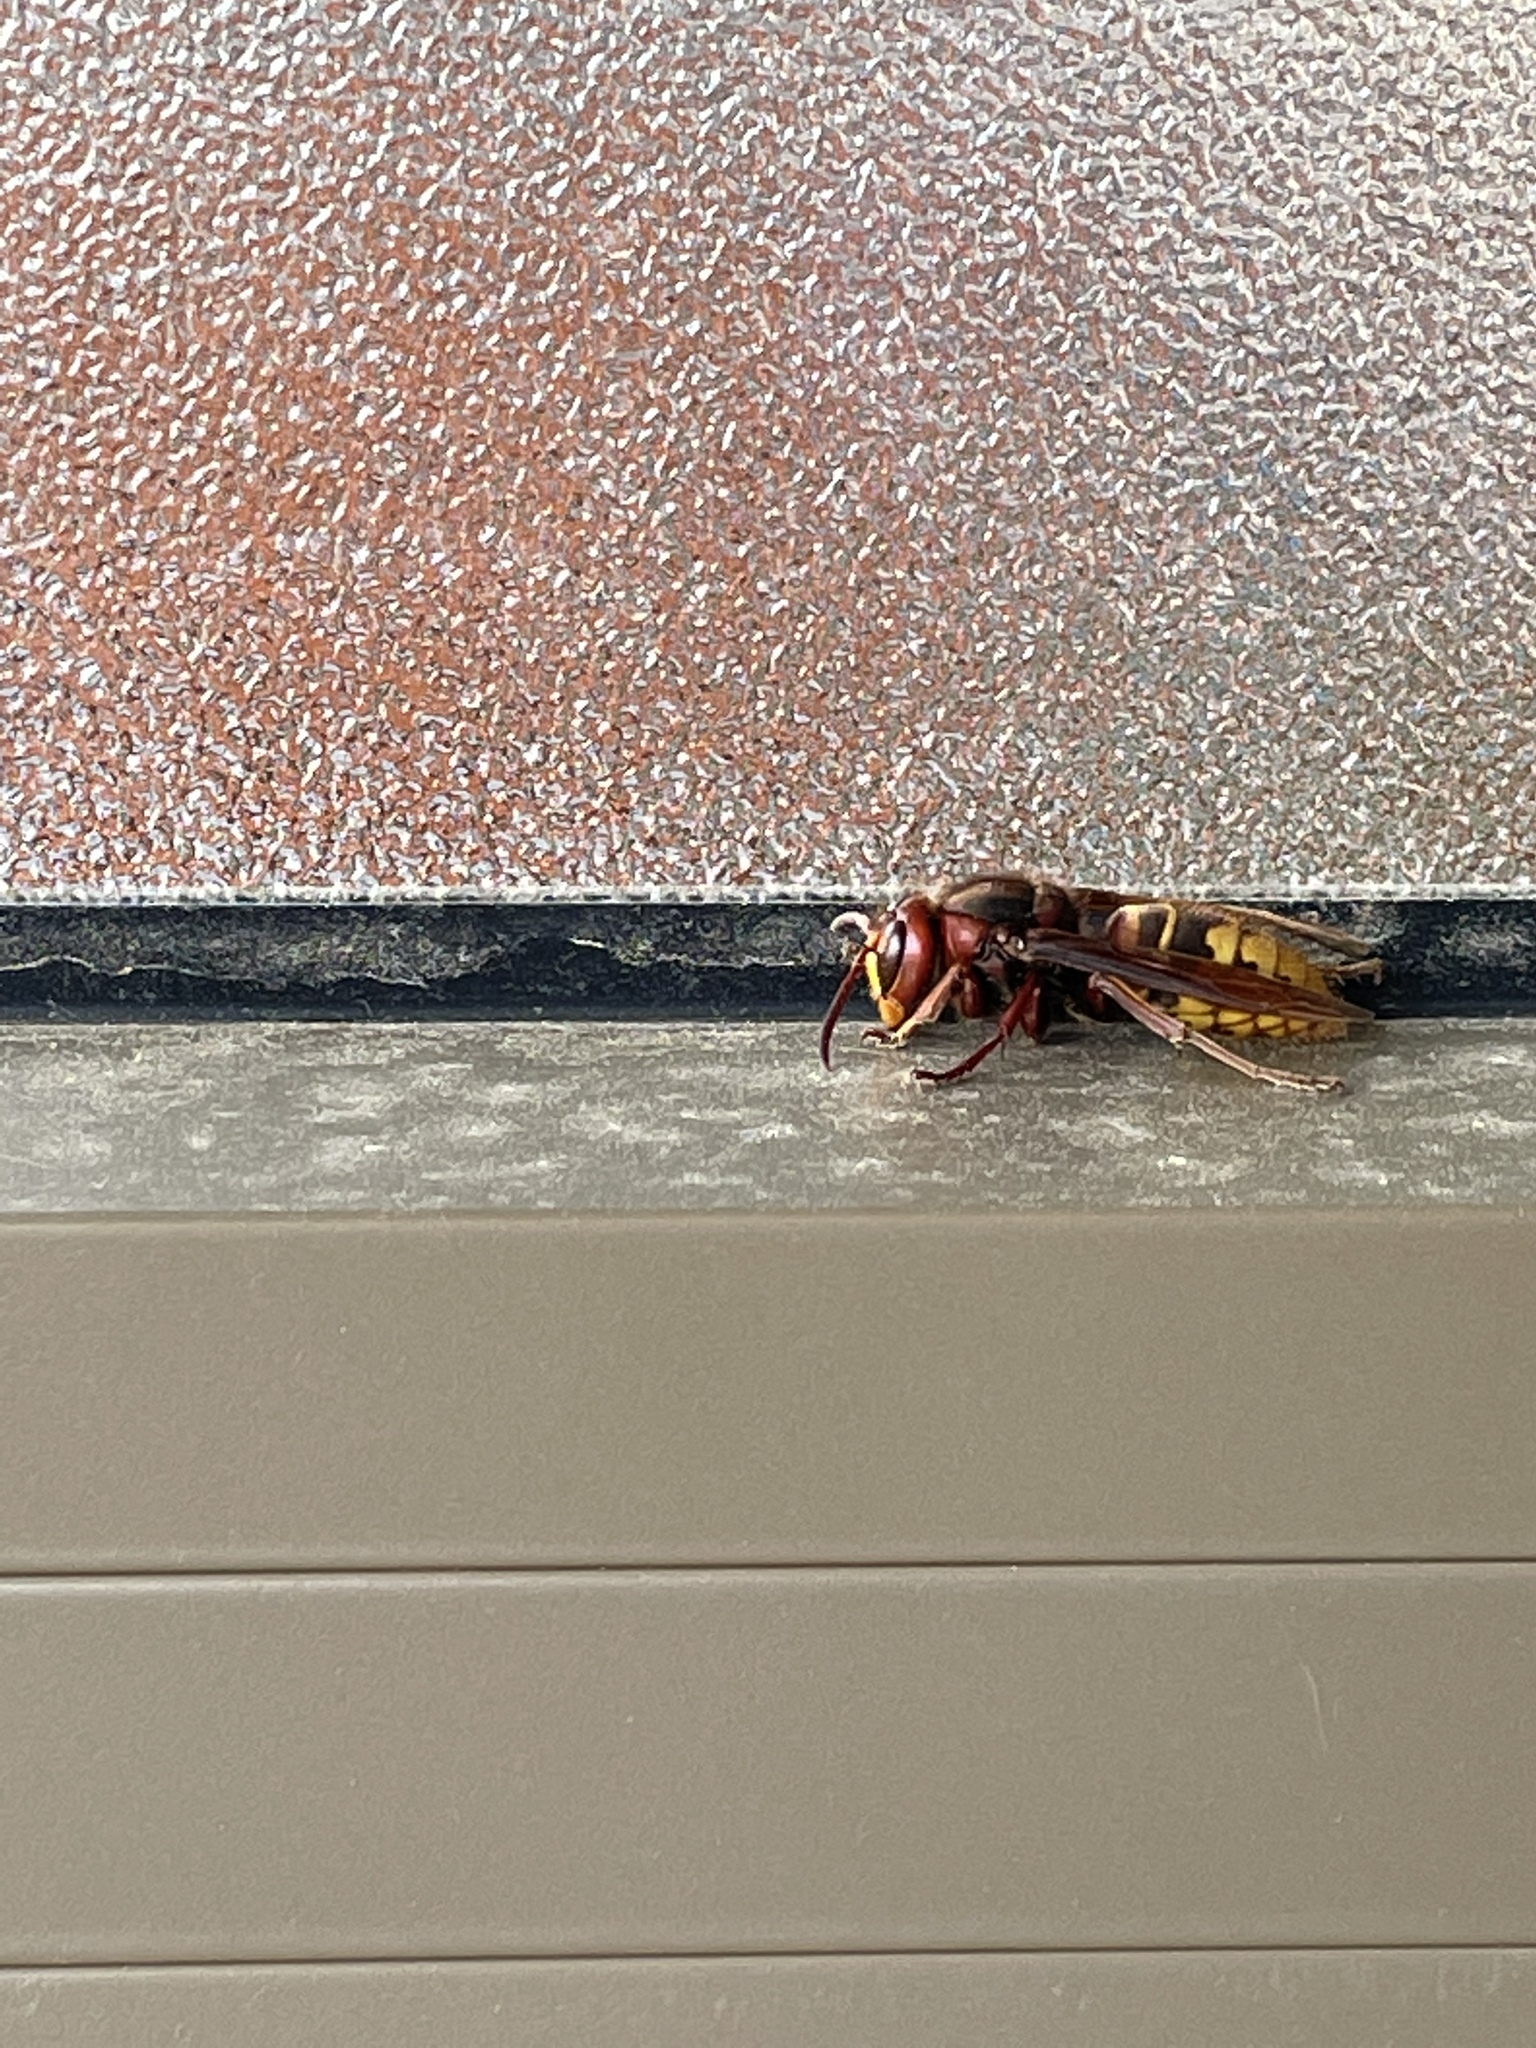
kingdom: Animalia
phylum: Arthropoda
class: Insecta
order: Hymenoptera
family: Vespidae
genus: Vespa
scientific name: Vespa crabro
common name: Hornet
